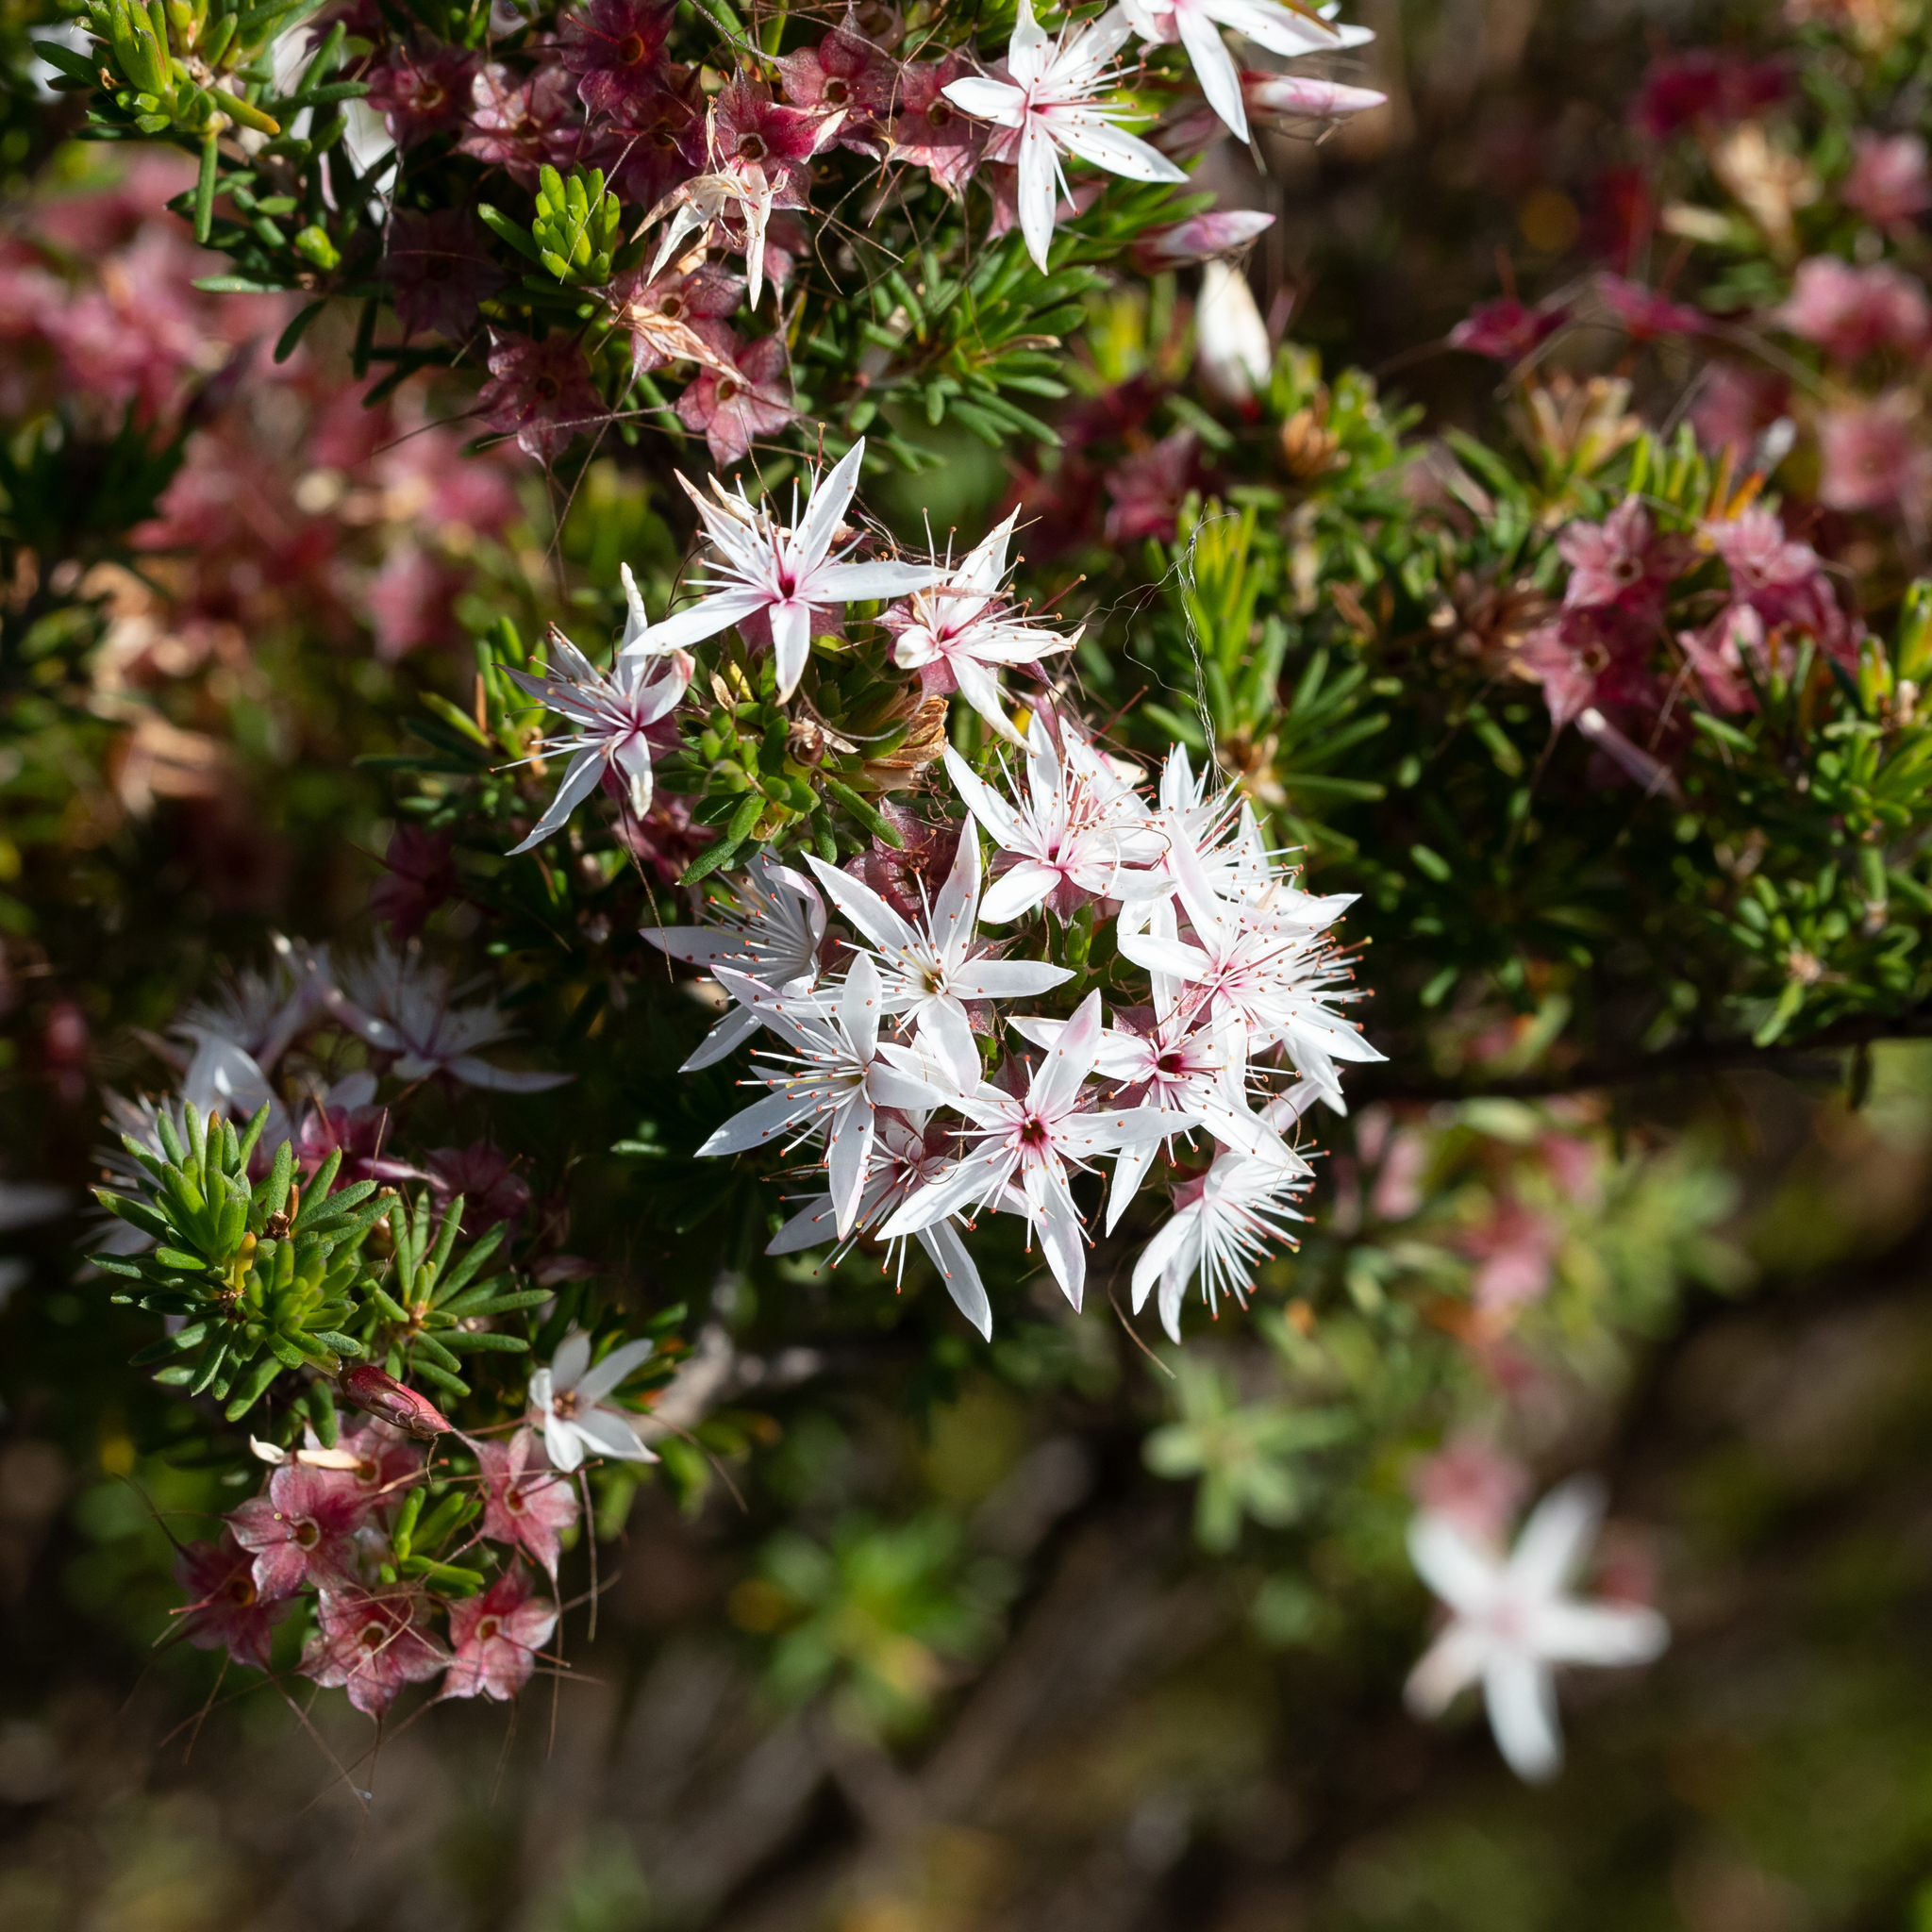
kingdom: Plantae
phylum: Tracheophyta
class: Magnoliopsida
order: Myrtales
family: Myrtaceae
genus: Calytrix
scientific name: Calytrix tetragona
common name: Common fringe myrtle
